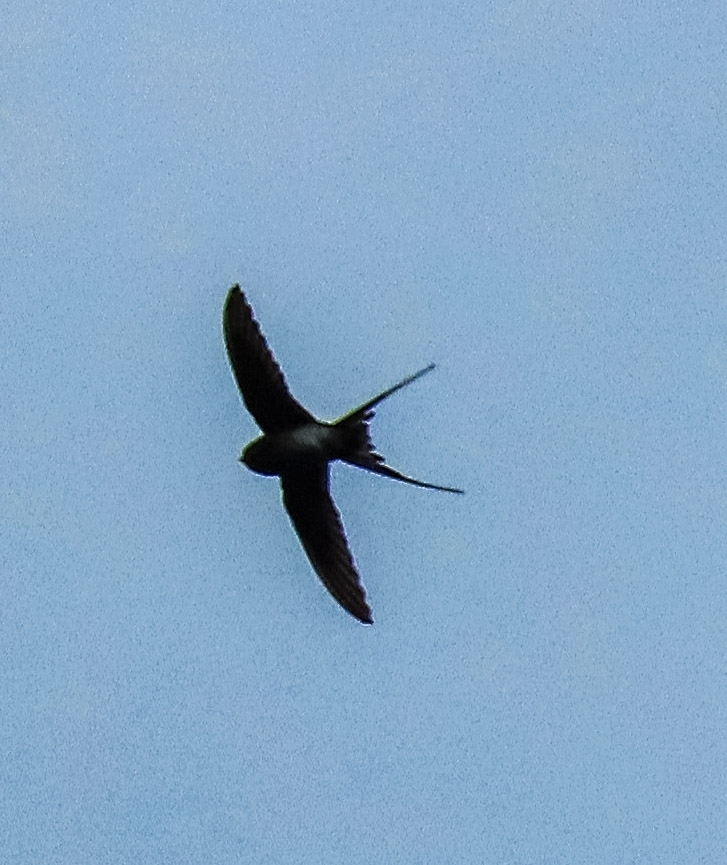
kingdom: Animalia
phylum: Chordata
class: Aves
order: Apodiformes
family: Hemiprocnidae
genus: Hemiprocne
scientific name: Hemiprocne coronata
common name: Crested treeswift
